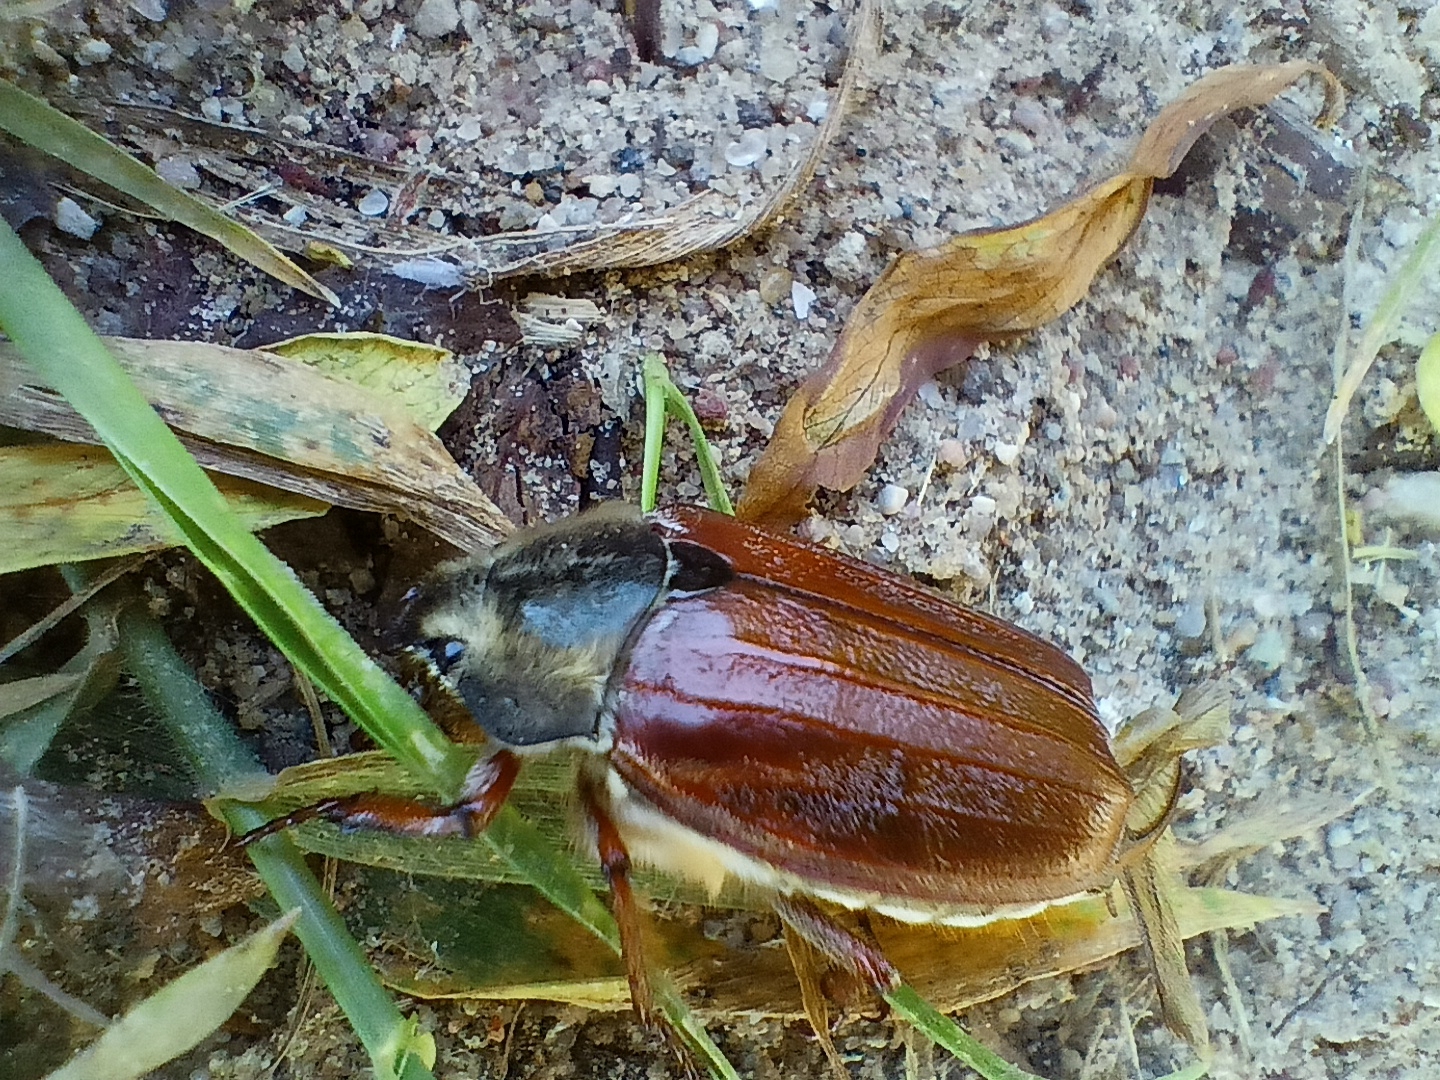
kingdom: Animalia
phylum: Arthropoda
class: Insecta
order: Coleoptera
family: Scarabaeidae
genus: Melolontha
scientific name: Melolontha melolontha
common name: Cockchafer maybeetle
